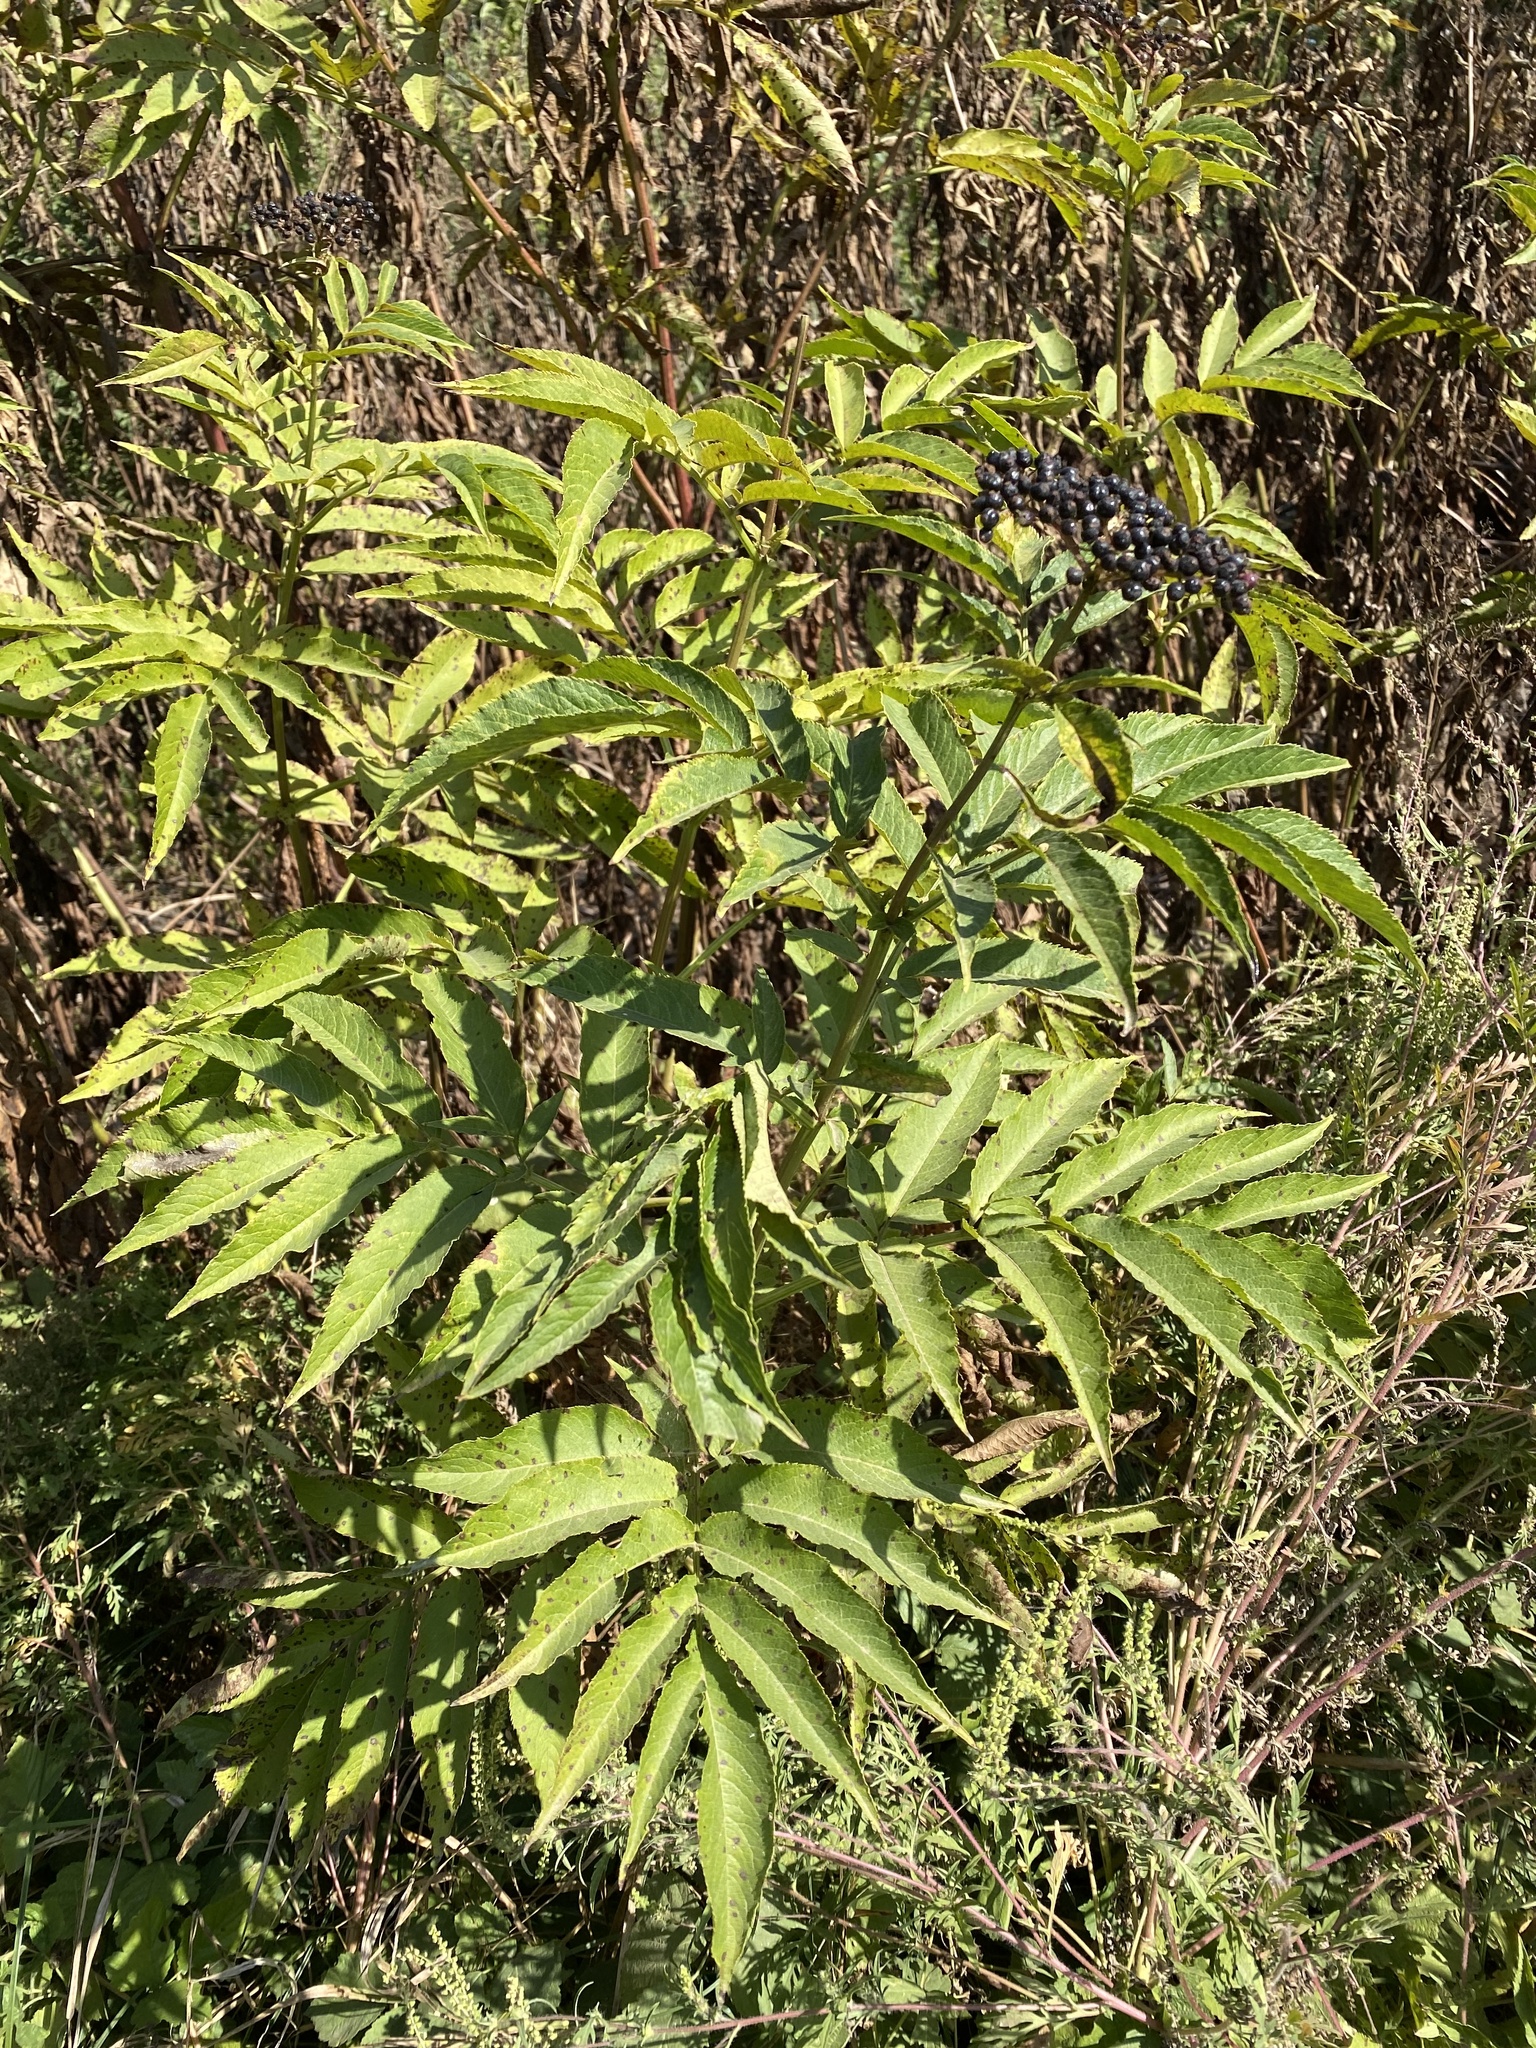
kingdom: Plantae
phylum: Tracheophyta
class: Magnoliopsida
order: Dipsacales
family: Viburnaceae
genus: Sambucus
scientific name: Sambucus ebulus
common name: Dwarf elder
